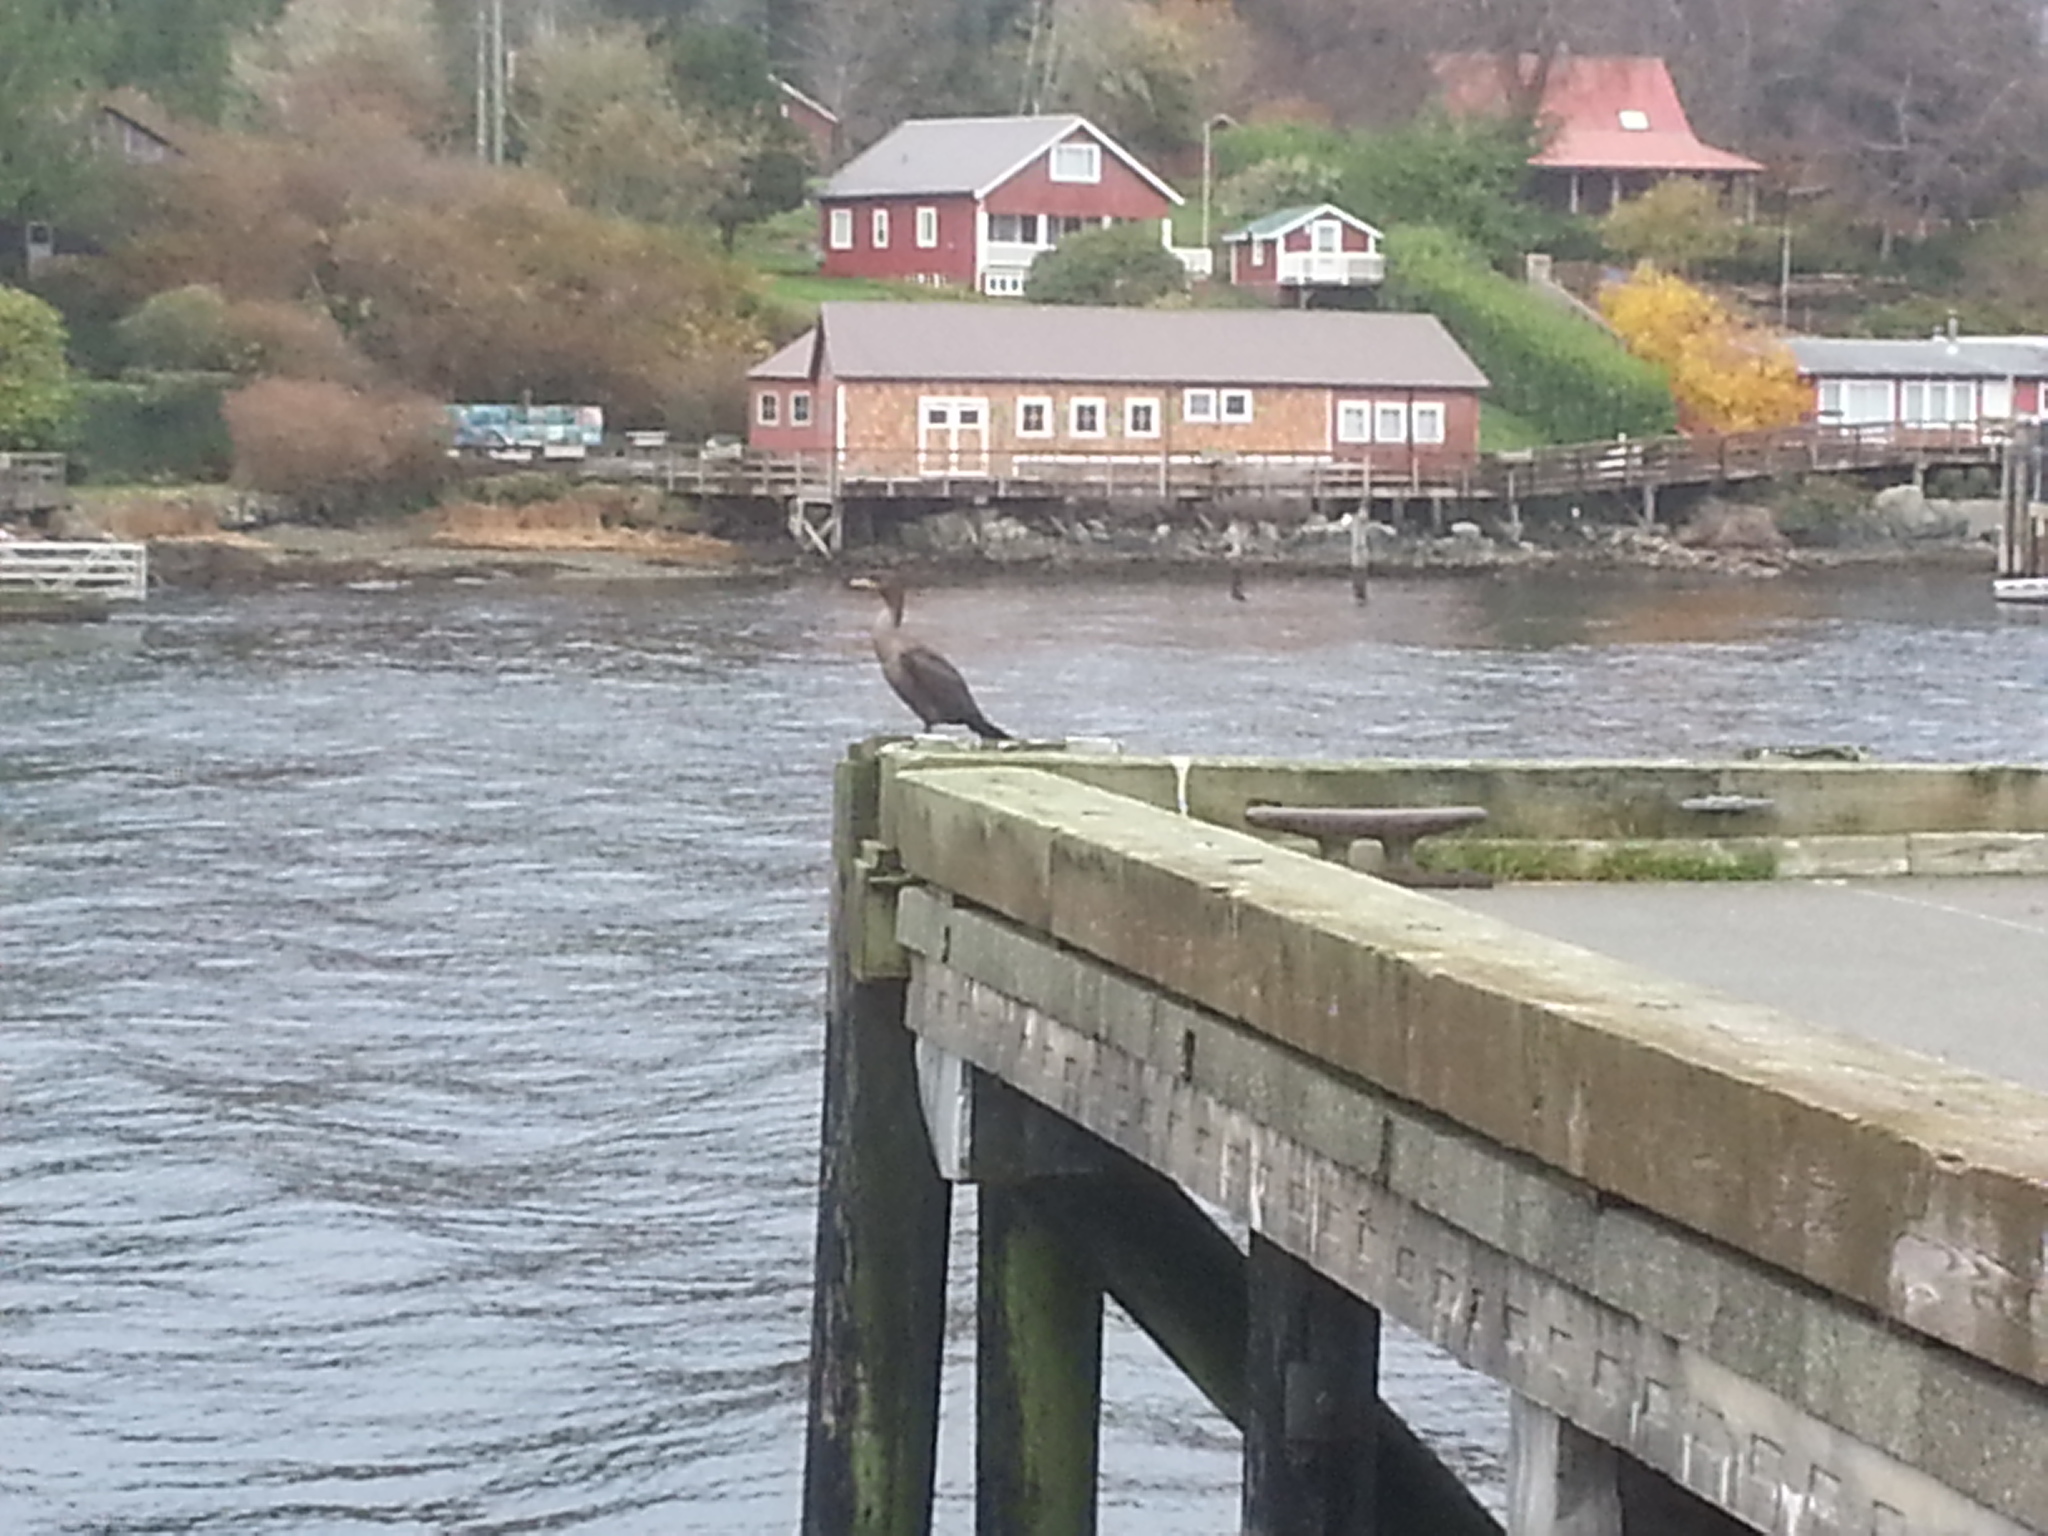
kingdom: Animalia
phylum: Chordata
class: Aves
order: Suliformes
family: Phalacrocoracidae
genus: Phalacrocorax
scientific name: Phalacrocorax auritus
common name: Double-crested cormorant
